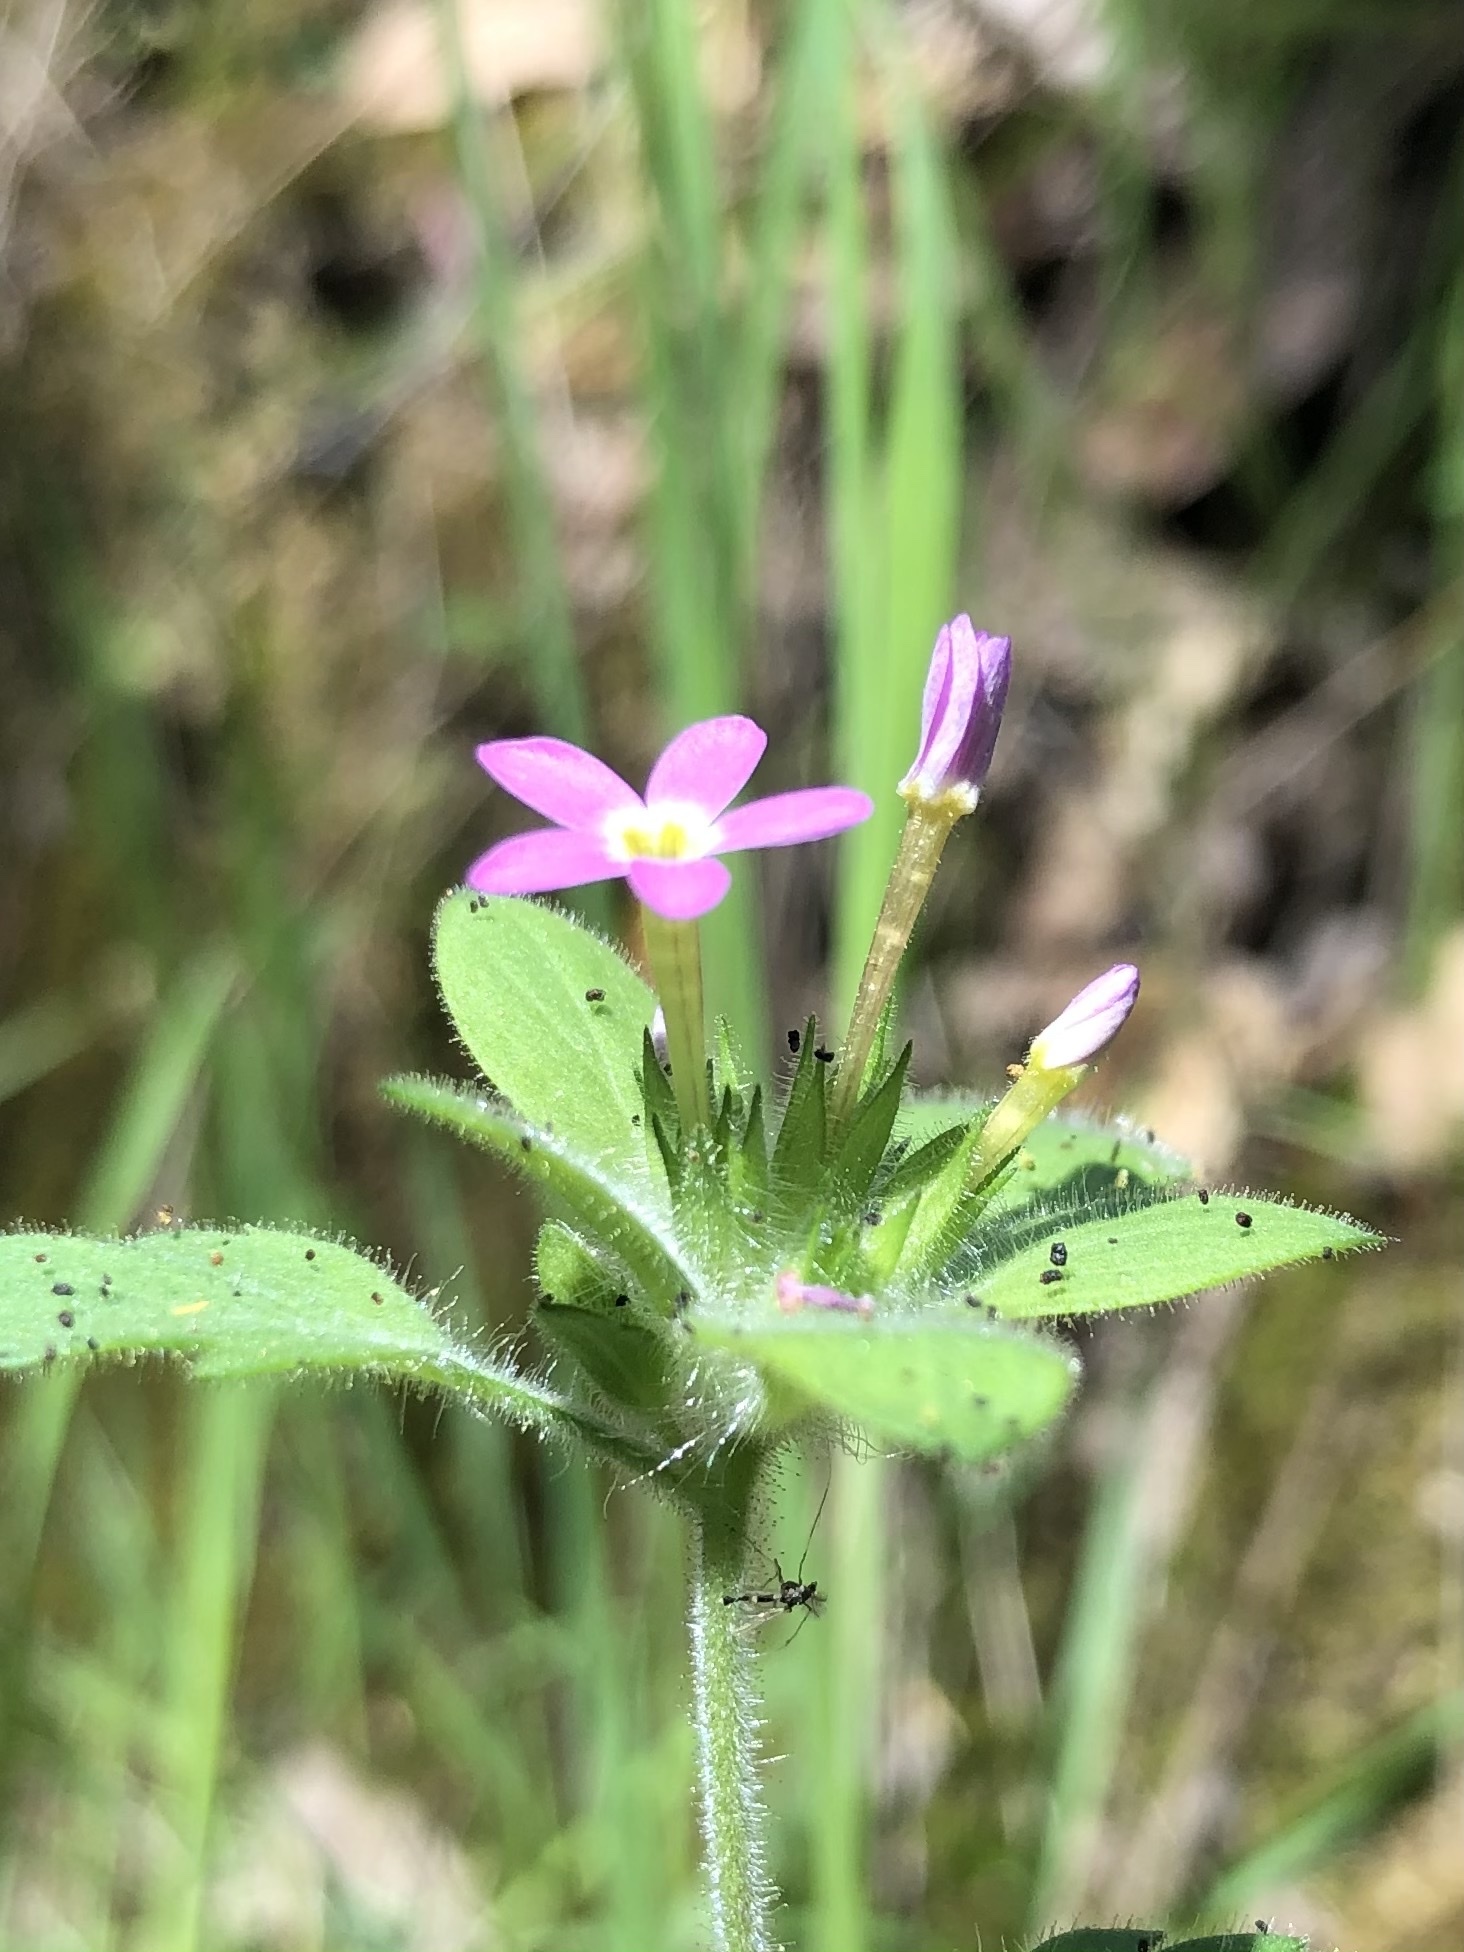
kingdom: Plantae
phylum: Tracheophyta
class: Magnoliopsida
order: Ericales
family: Polemoniaceae
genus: Collomia
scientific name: Collomia heterophylla
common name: Variable-leaved collomia
